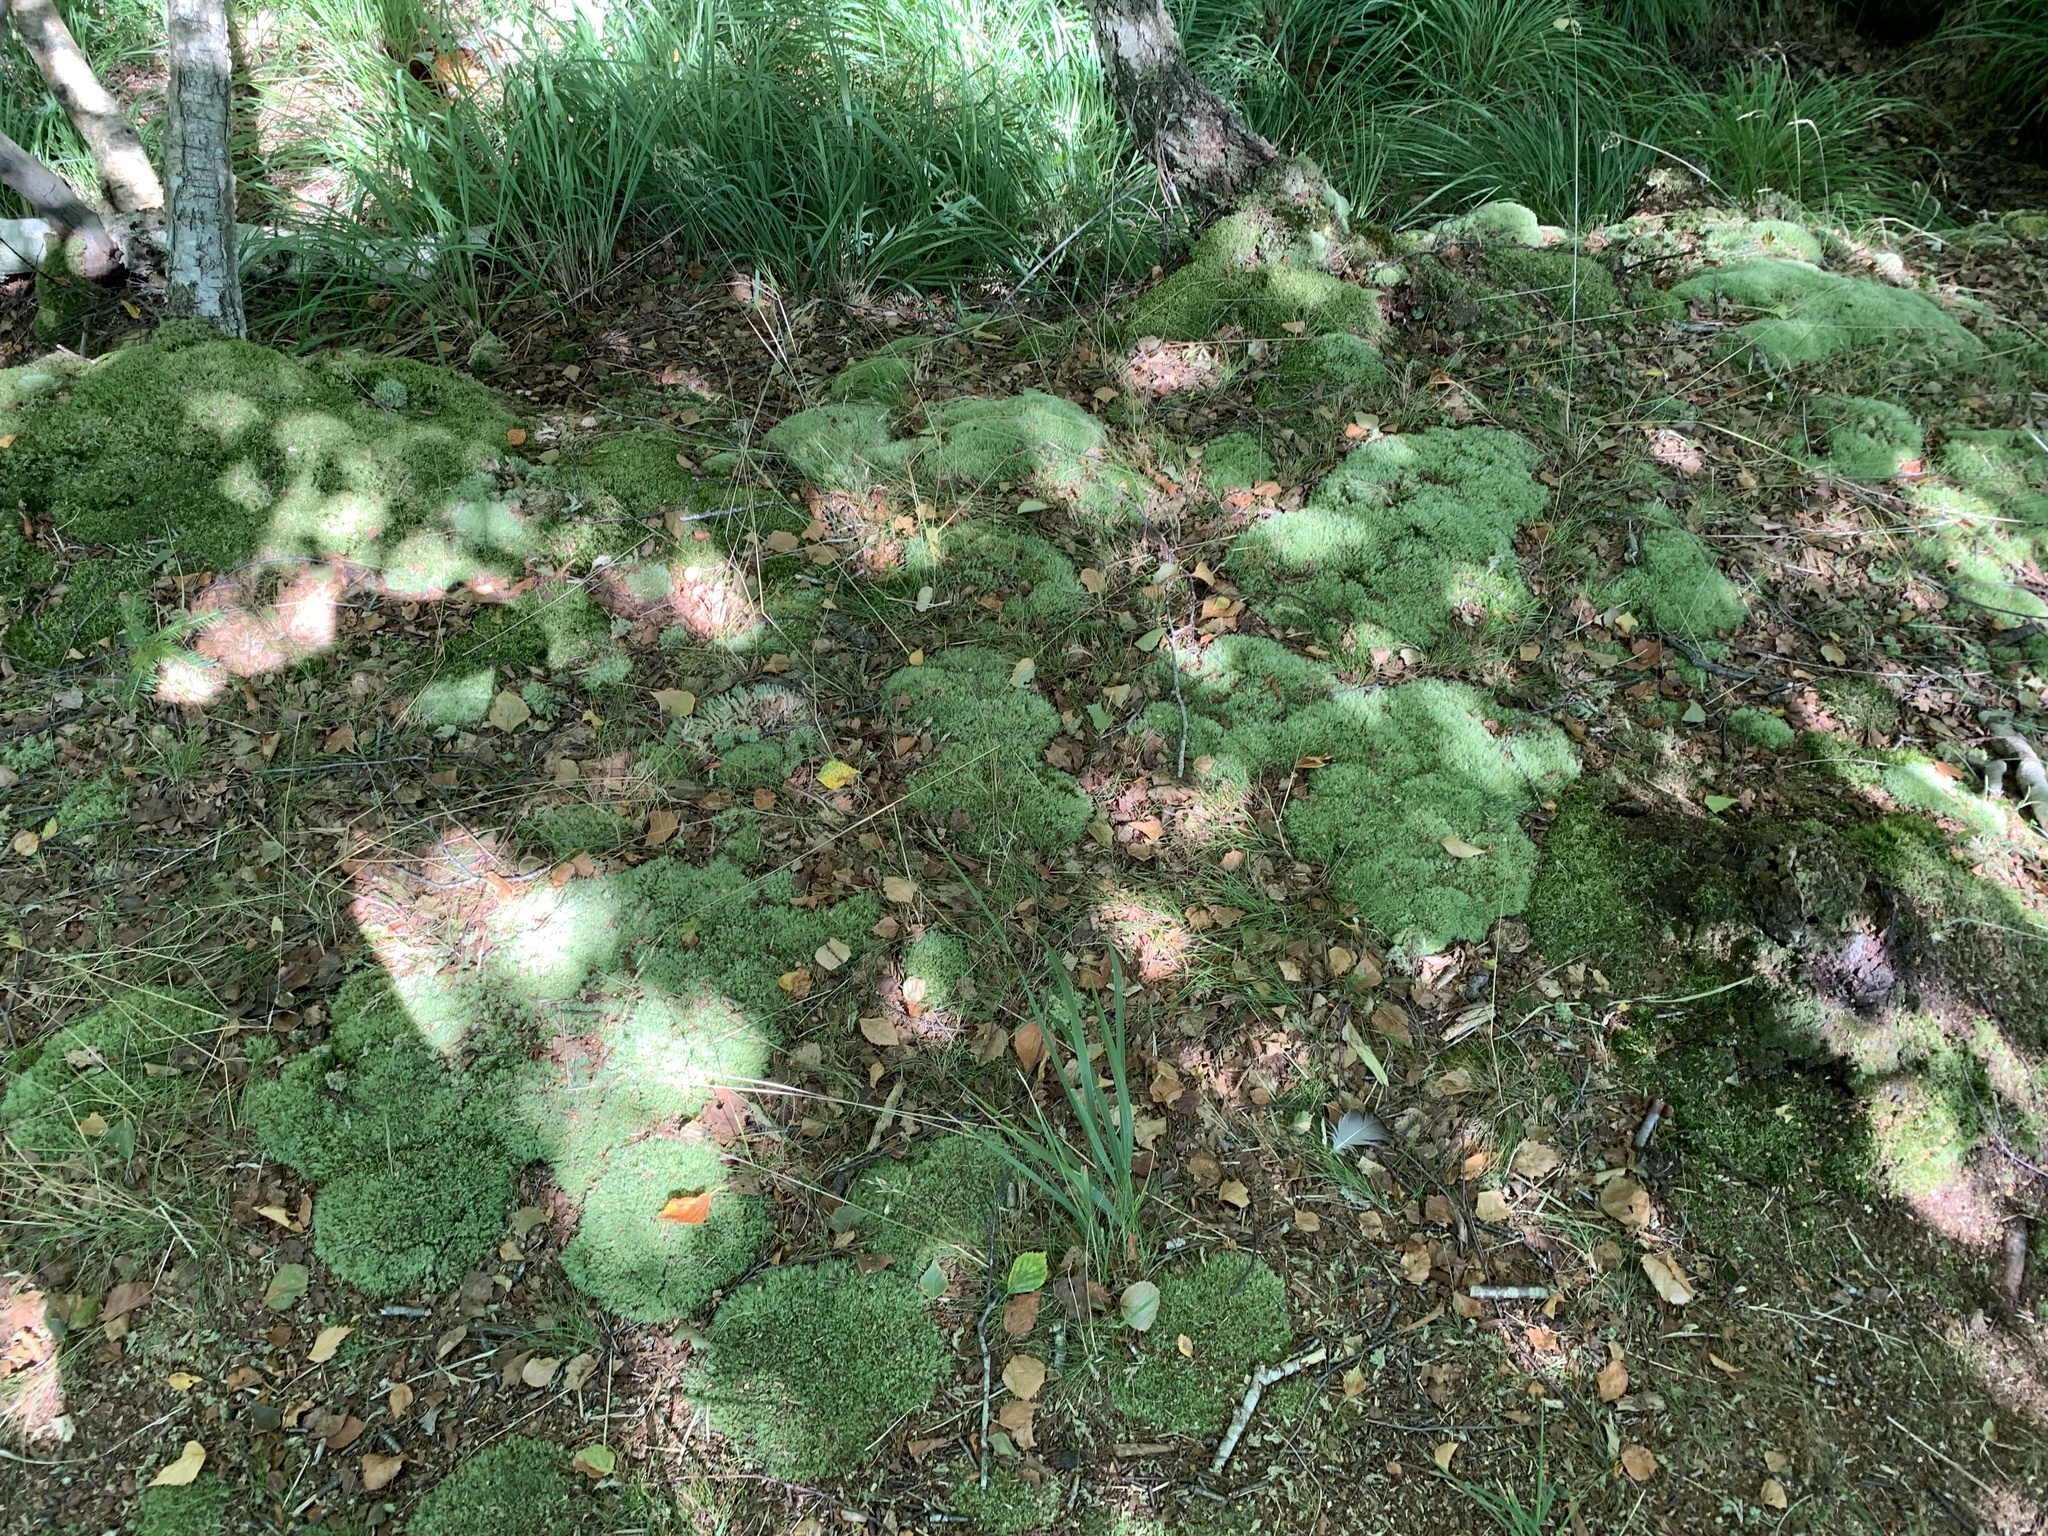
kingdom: Plantae
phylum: Bryophyta
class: Bryopsida
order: Dicranales
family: Leucobryaceae
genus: Leucobryum
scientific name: Leucobryum glaucum
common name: Large white-moss
